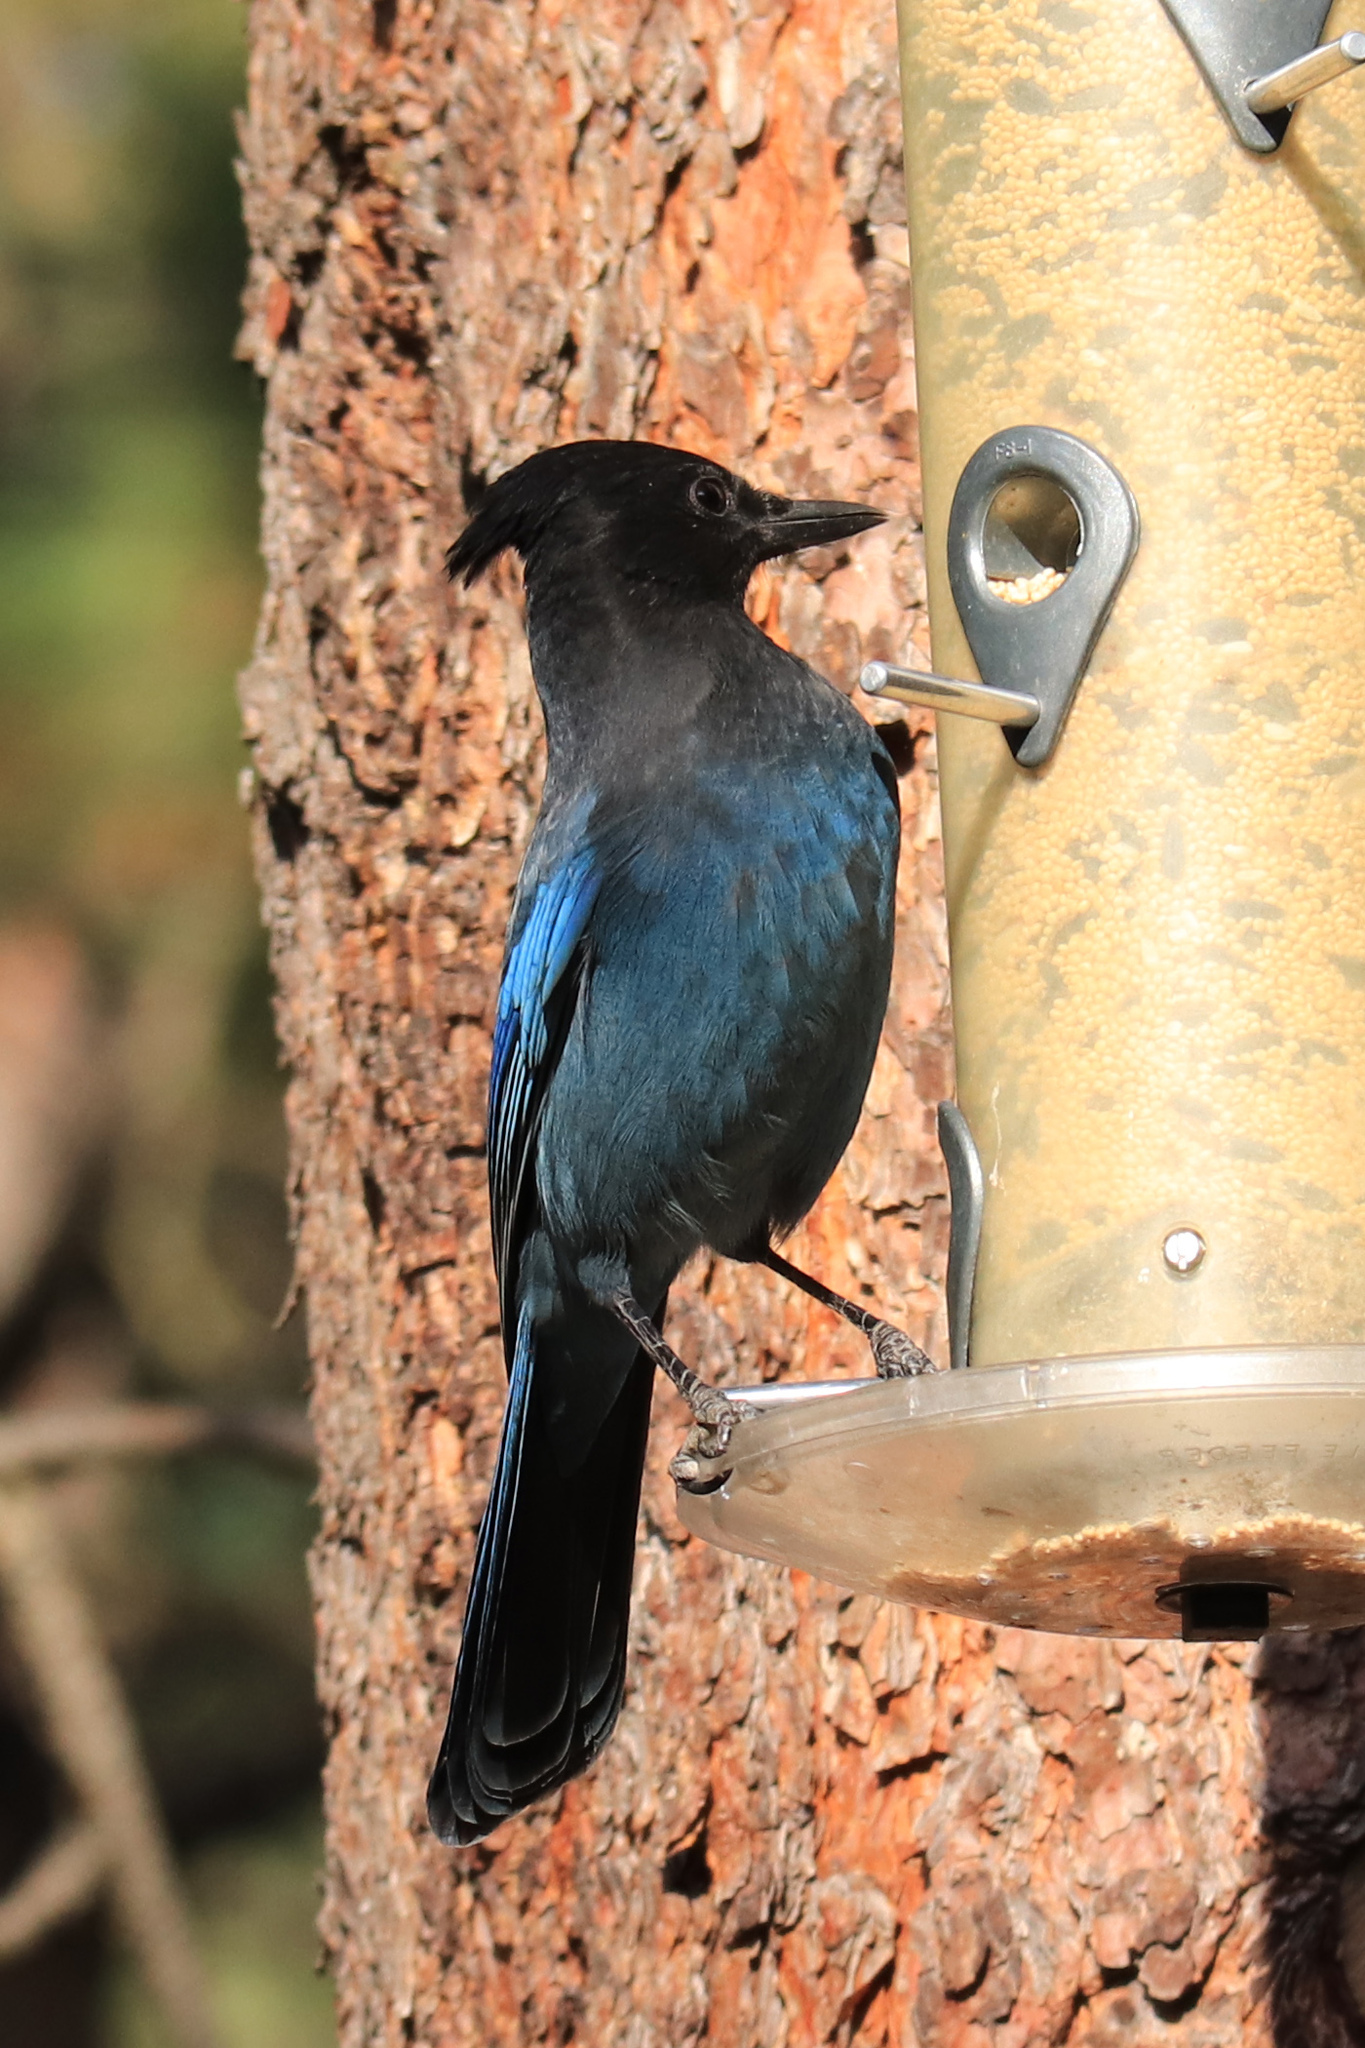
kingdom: Animalia
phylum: Chordata
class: Aves
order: Passeriformes
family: Corvidae
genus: Cyanocitta
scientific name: Cyanocitta stelleri
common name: Steller's jay
